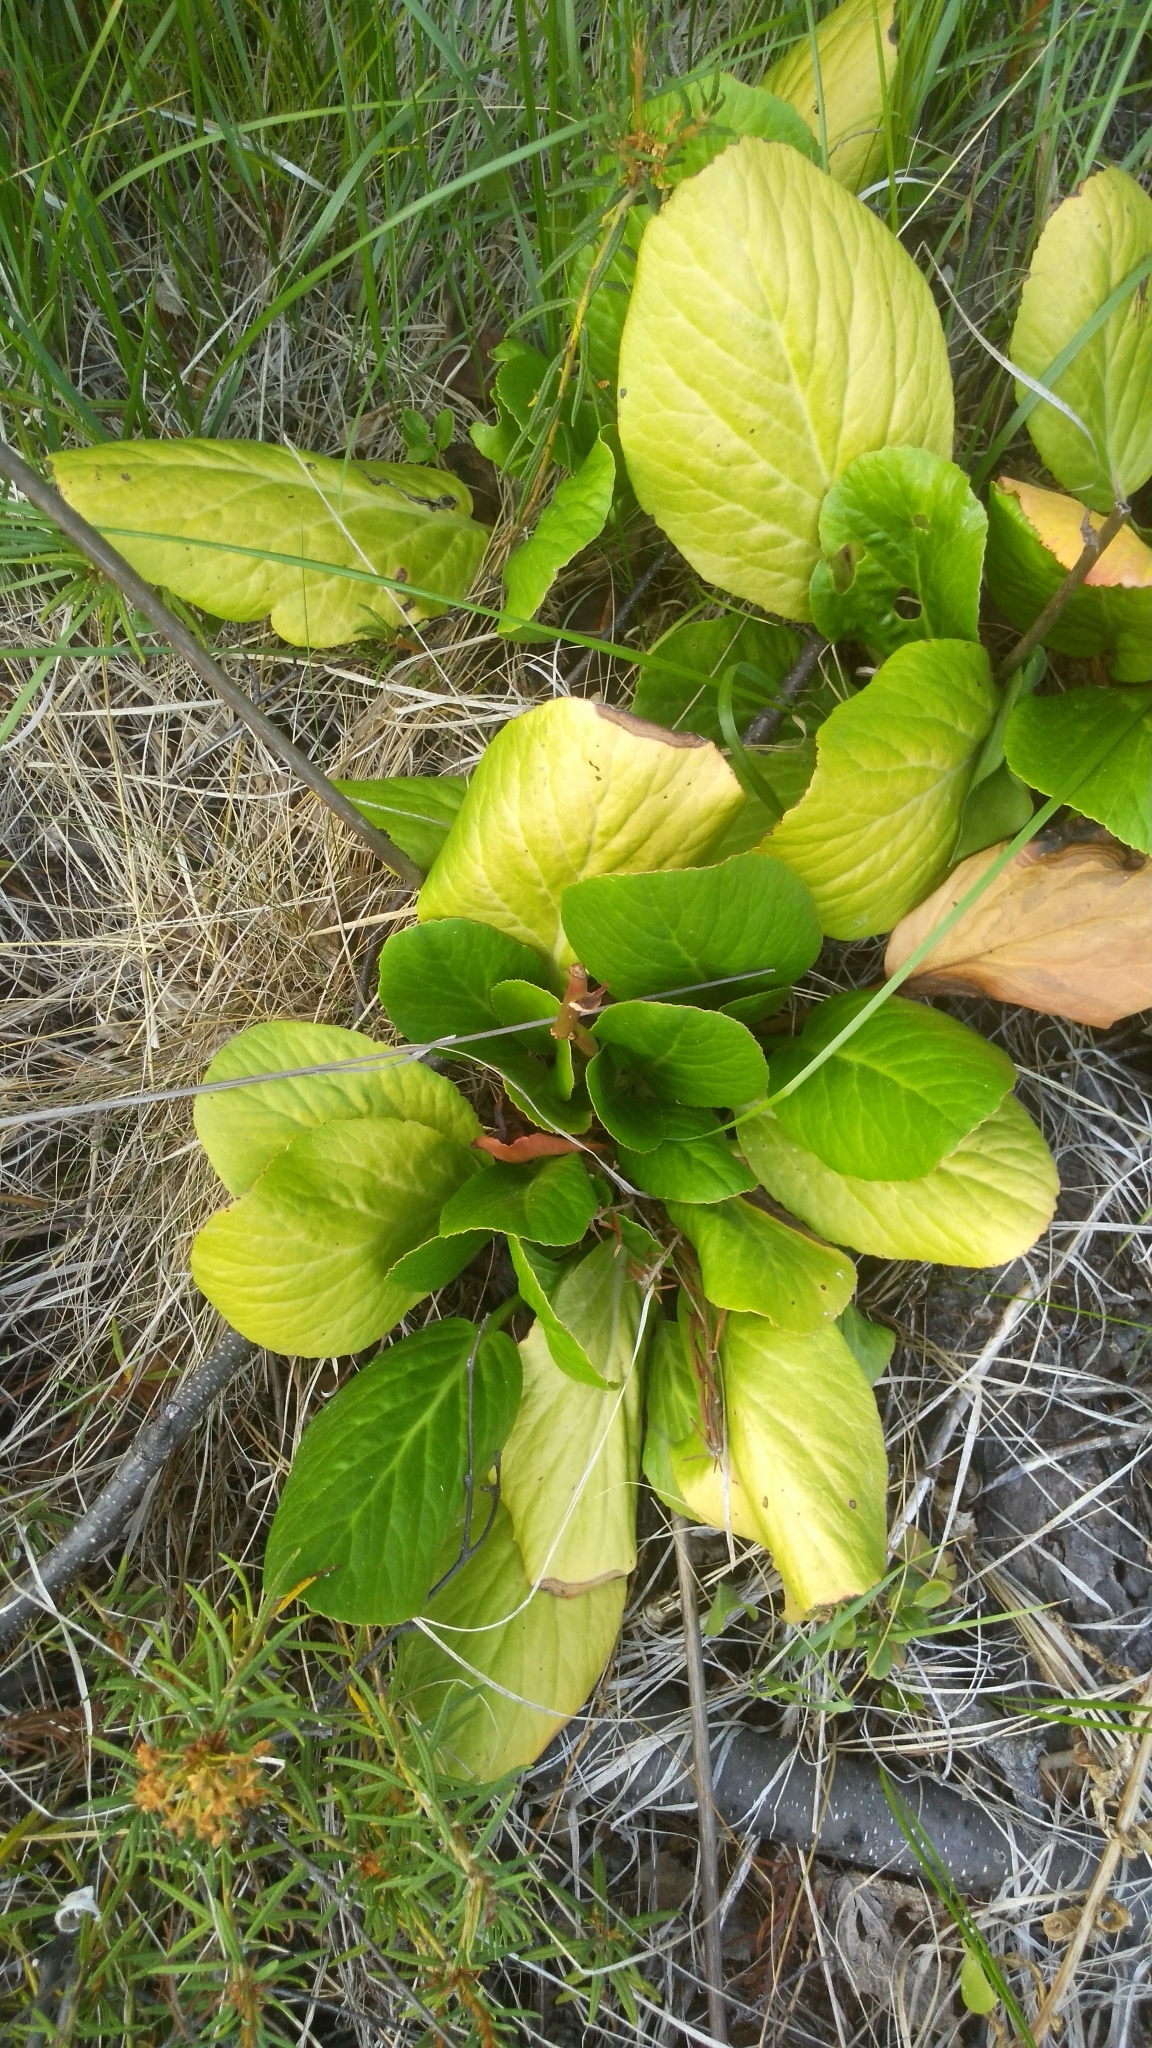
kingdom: Plantae
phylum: Tracheophyta
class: Magnoliopsida
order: Saxifragales
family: Saxifragaceae
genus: Bergenia
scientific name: Bergenia crassifolia
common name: Elephant-ears
